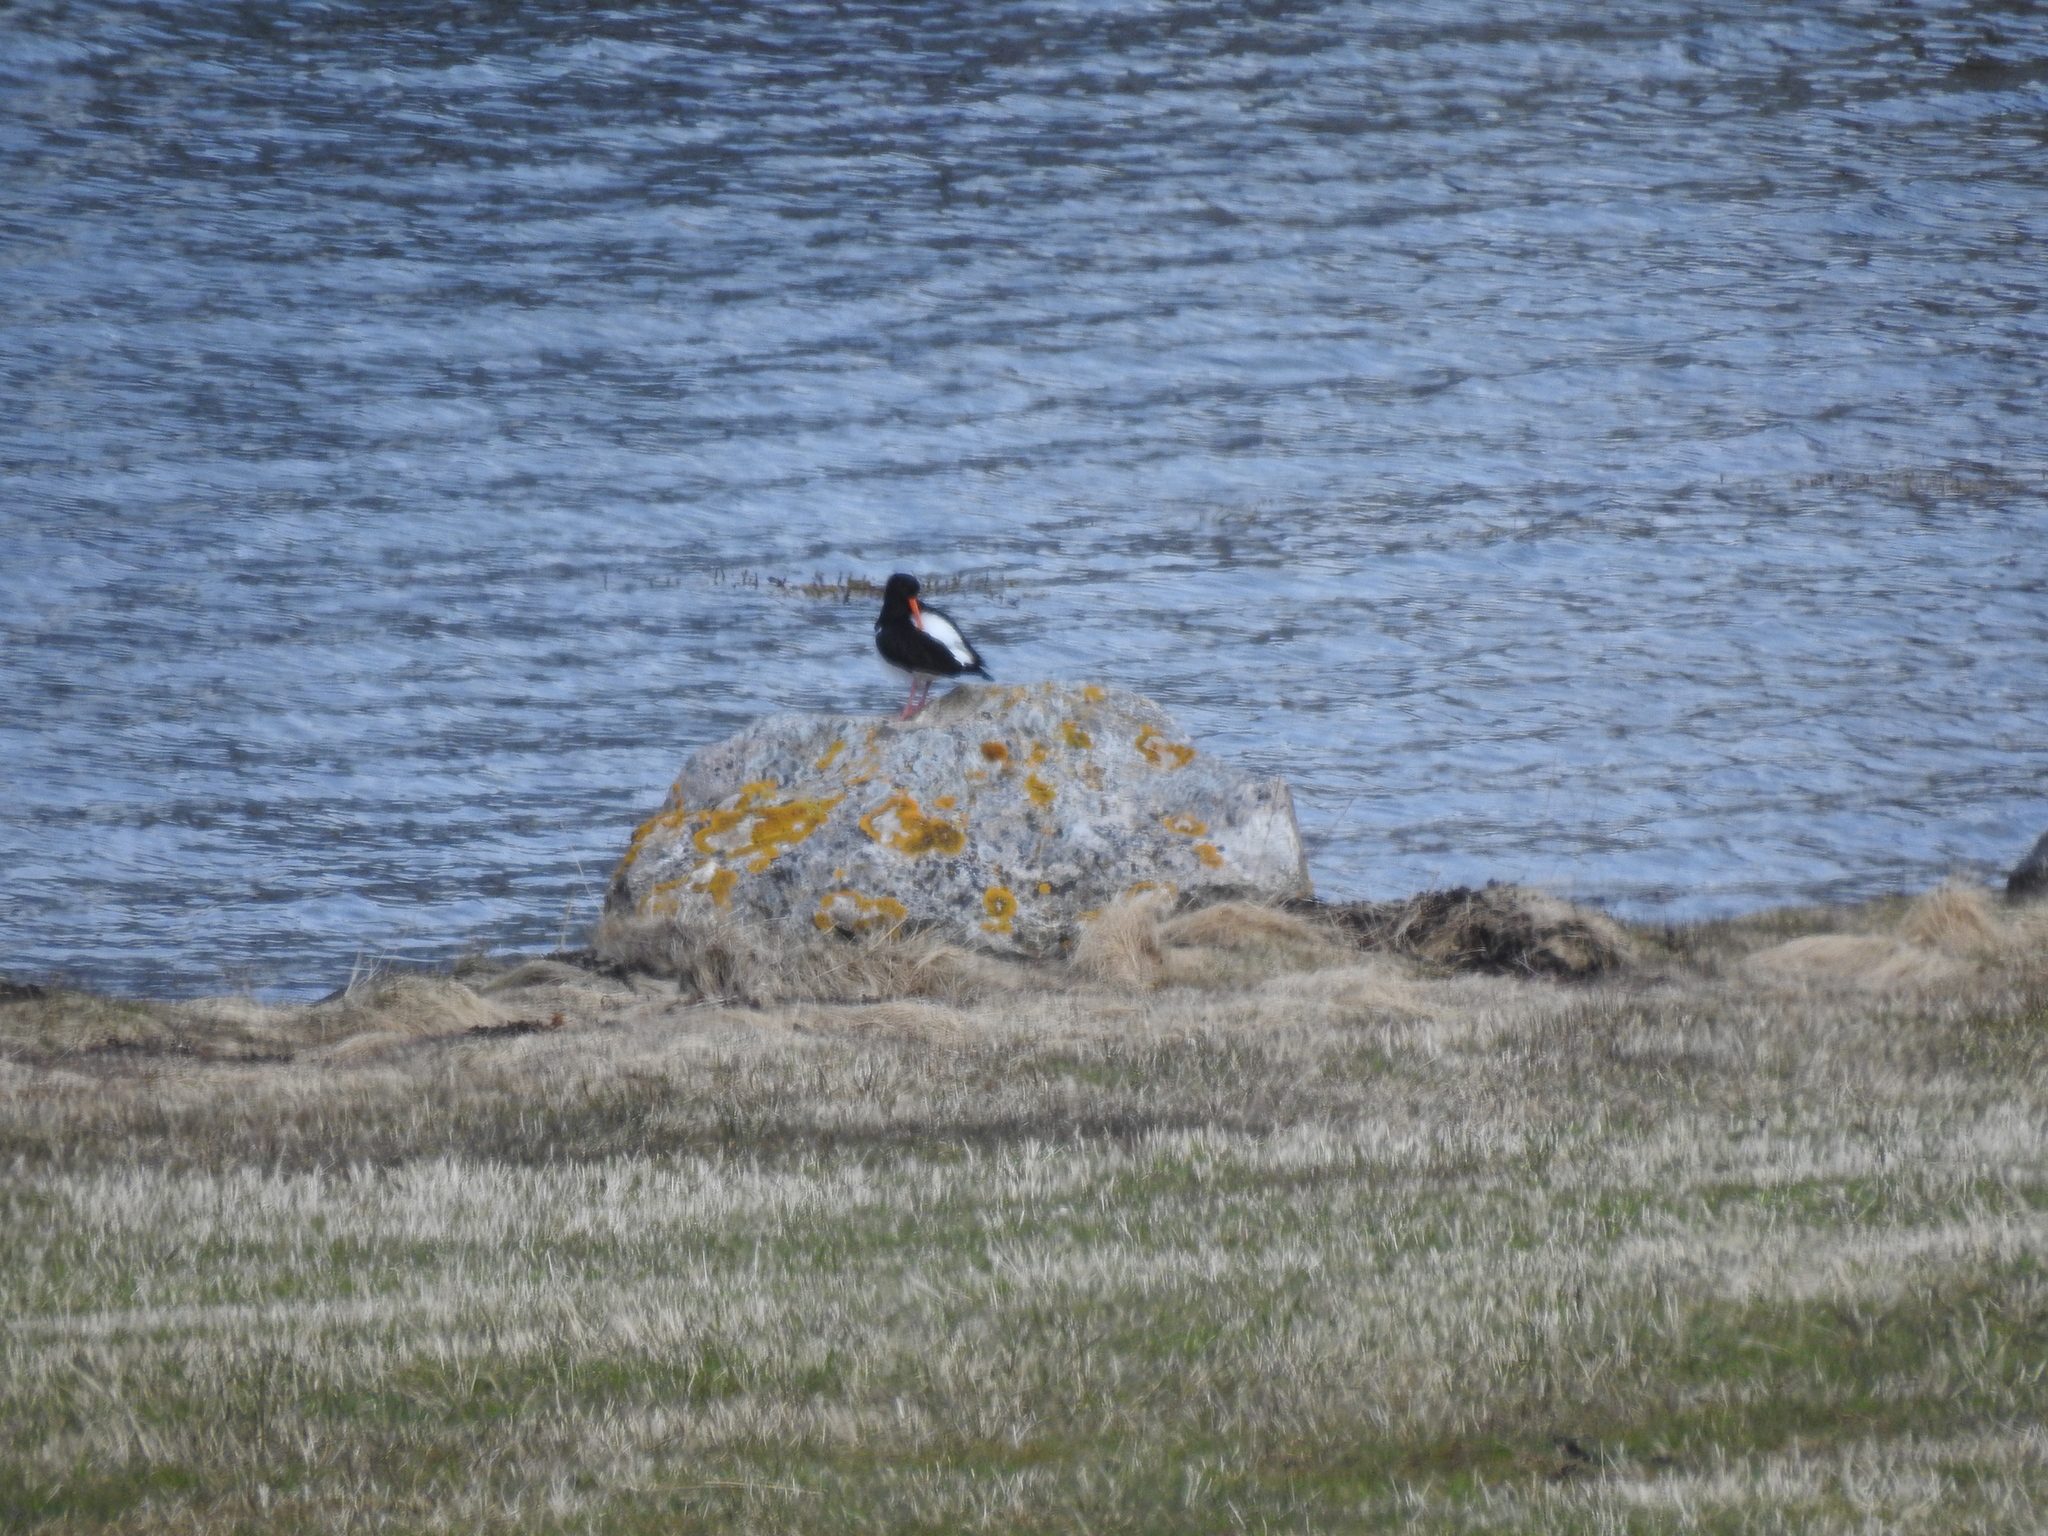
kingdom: Animalia
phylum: Chordata
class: Aves
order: Charadriiformes
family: Haematopodidae
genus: Haematopus
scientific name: Haematopus ostralegus
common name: Eurasian oystercatcher
